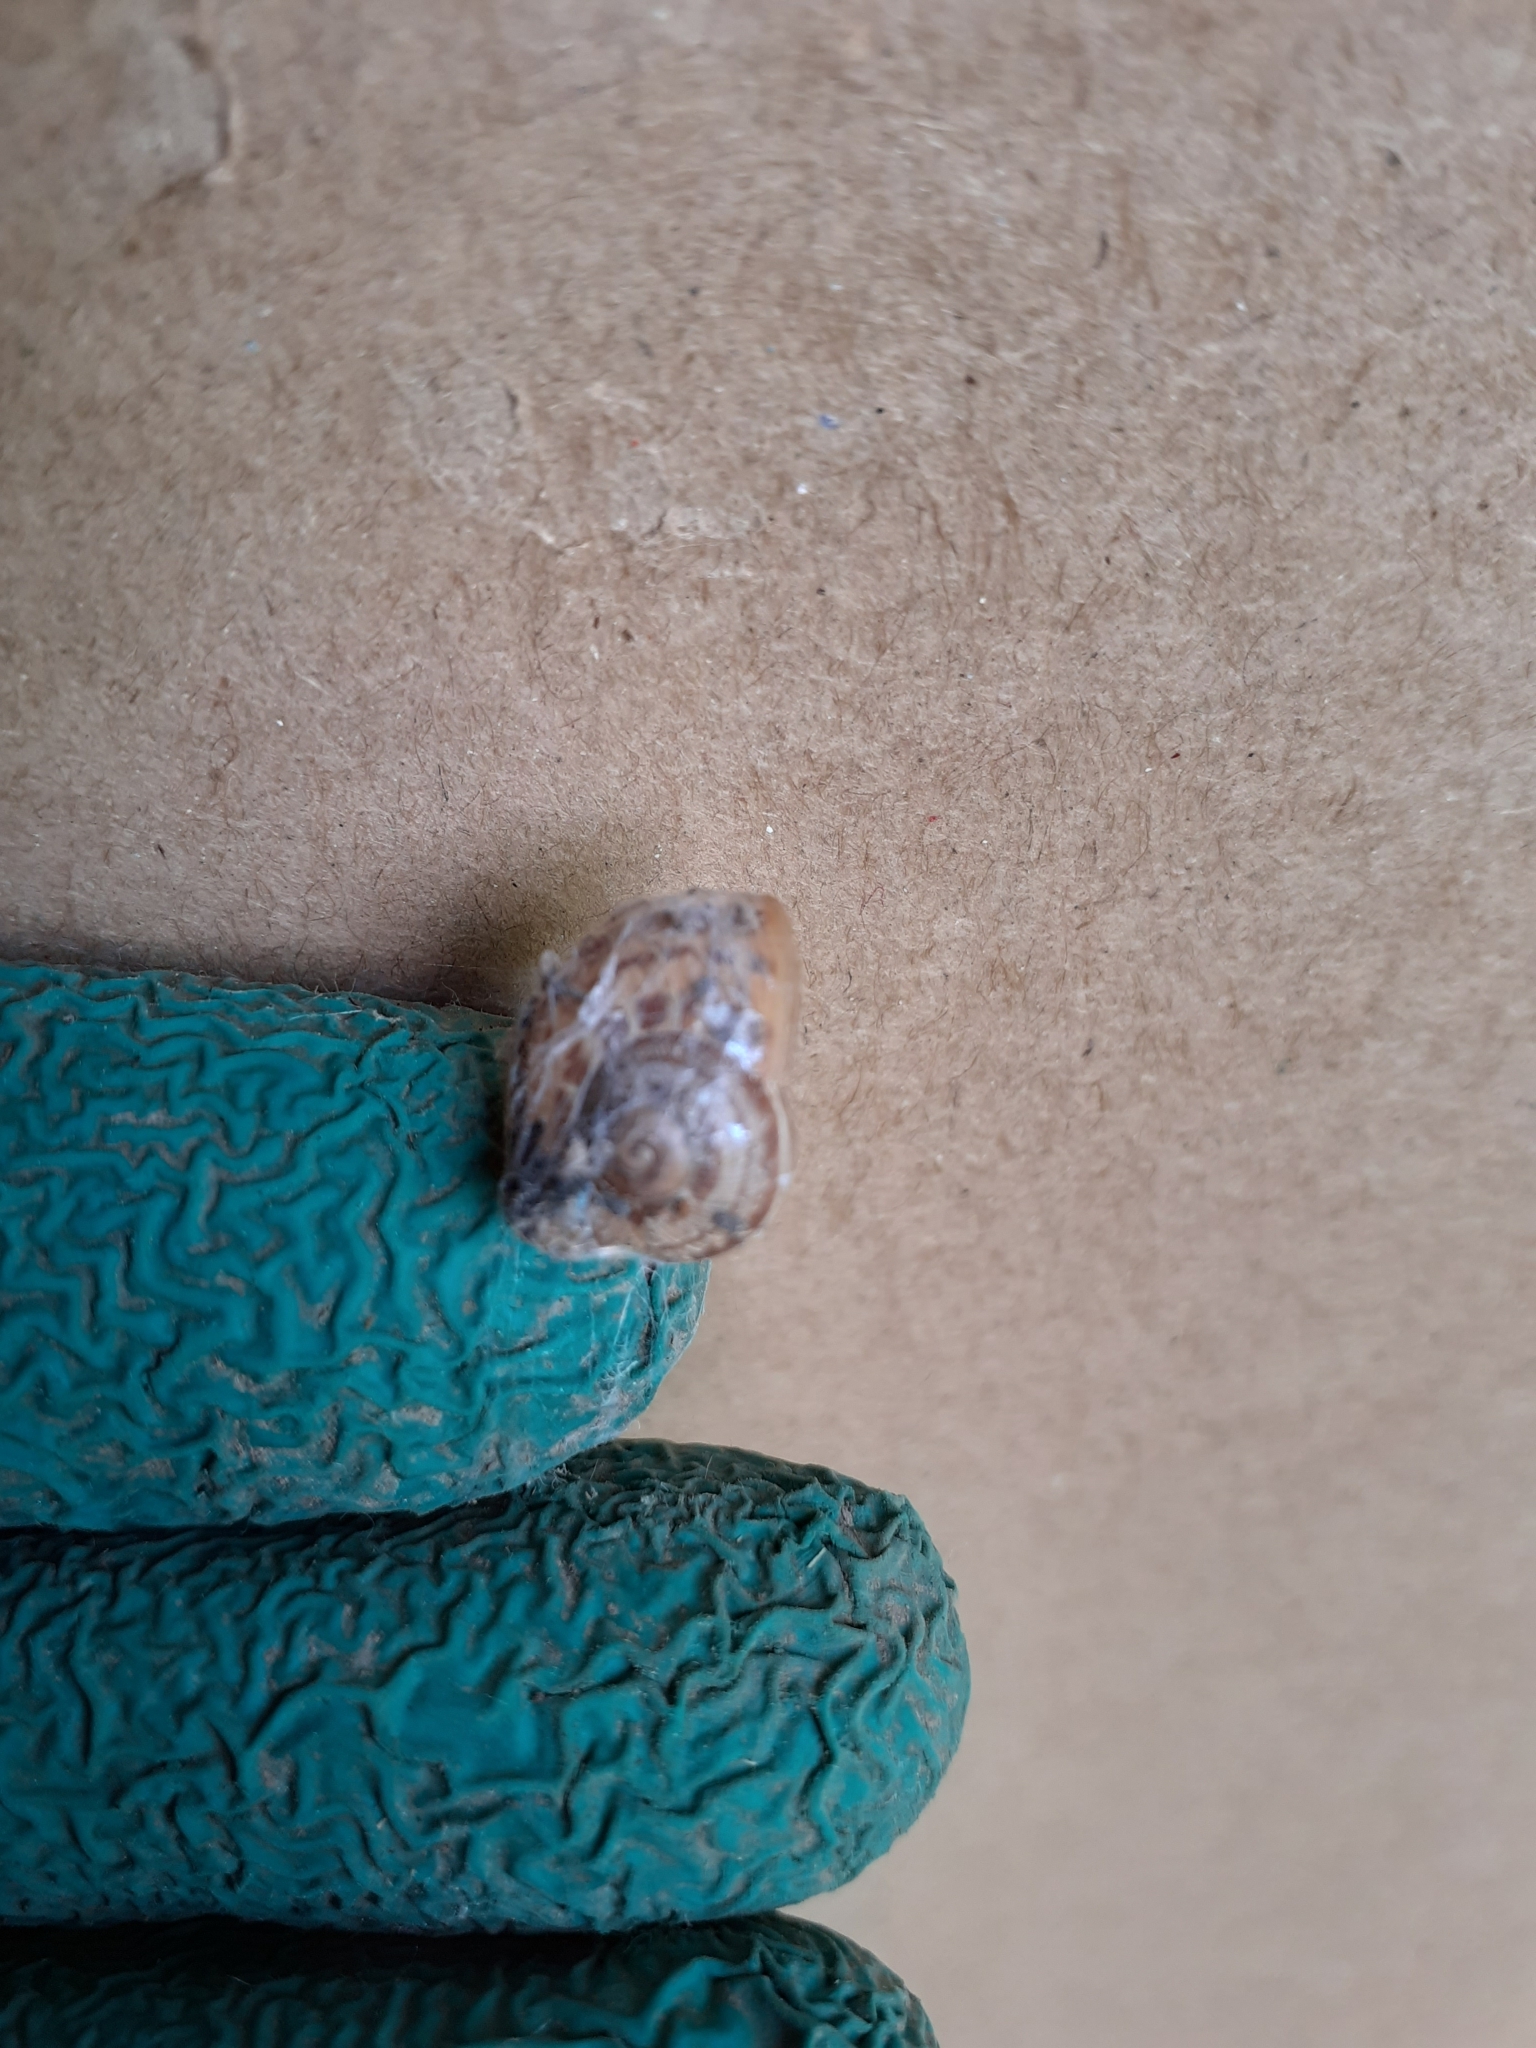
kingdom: Animalia
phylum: Mollusca
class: Gastropoda
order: Stylommatophora
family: Helicidae
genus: Cornu
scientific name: Cornu aspersum
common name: Brown garden snail
